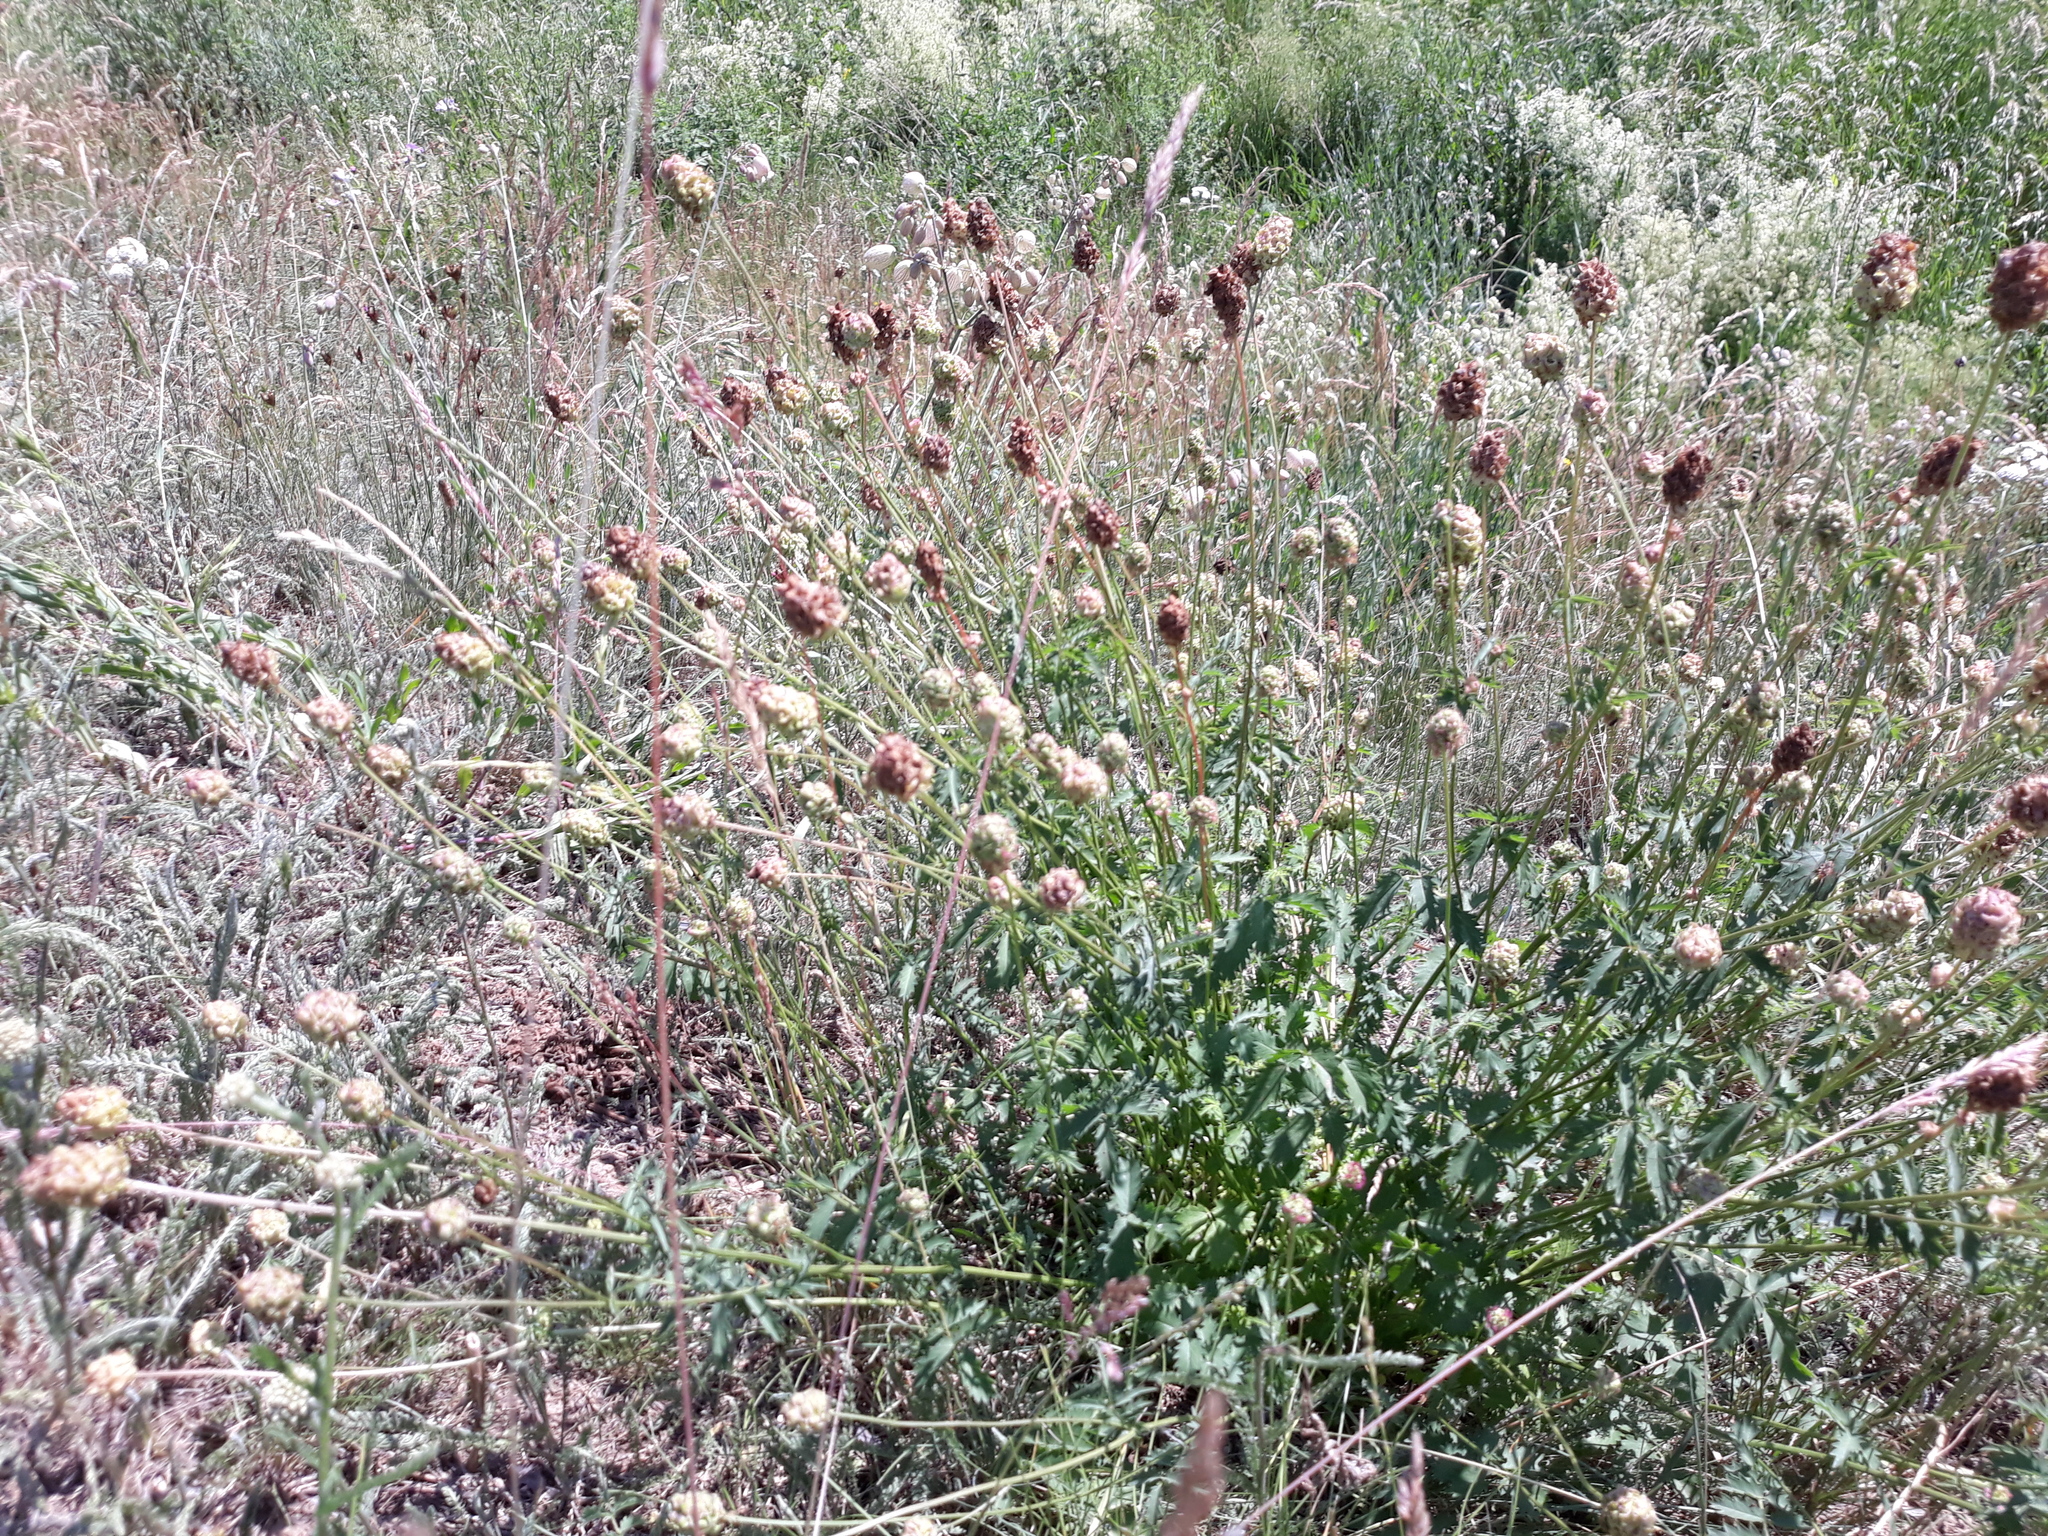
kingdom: Plantae
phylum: Tracheophyta
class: Magnoliopsida
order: Rosales
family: Rosaceae
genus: Poterium
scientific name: Poterium sanguisorba
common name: Salad burnet
